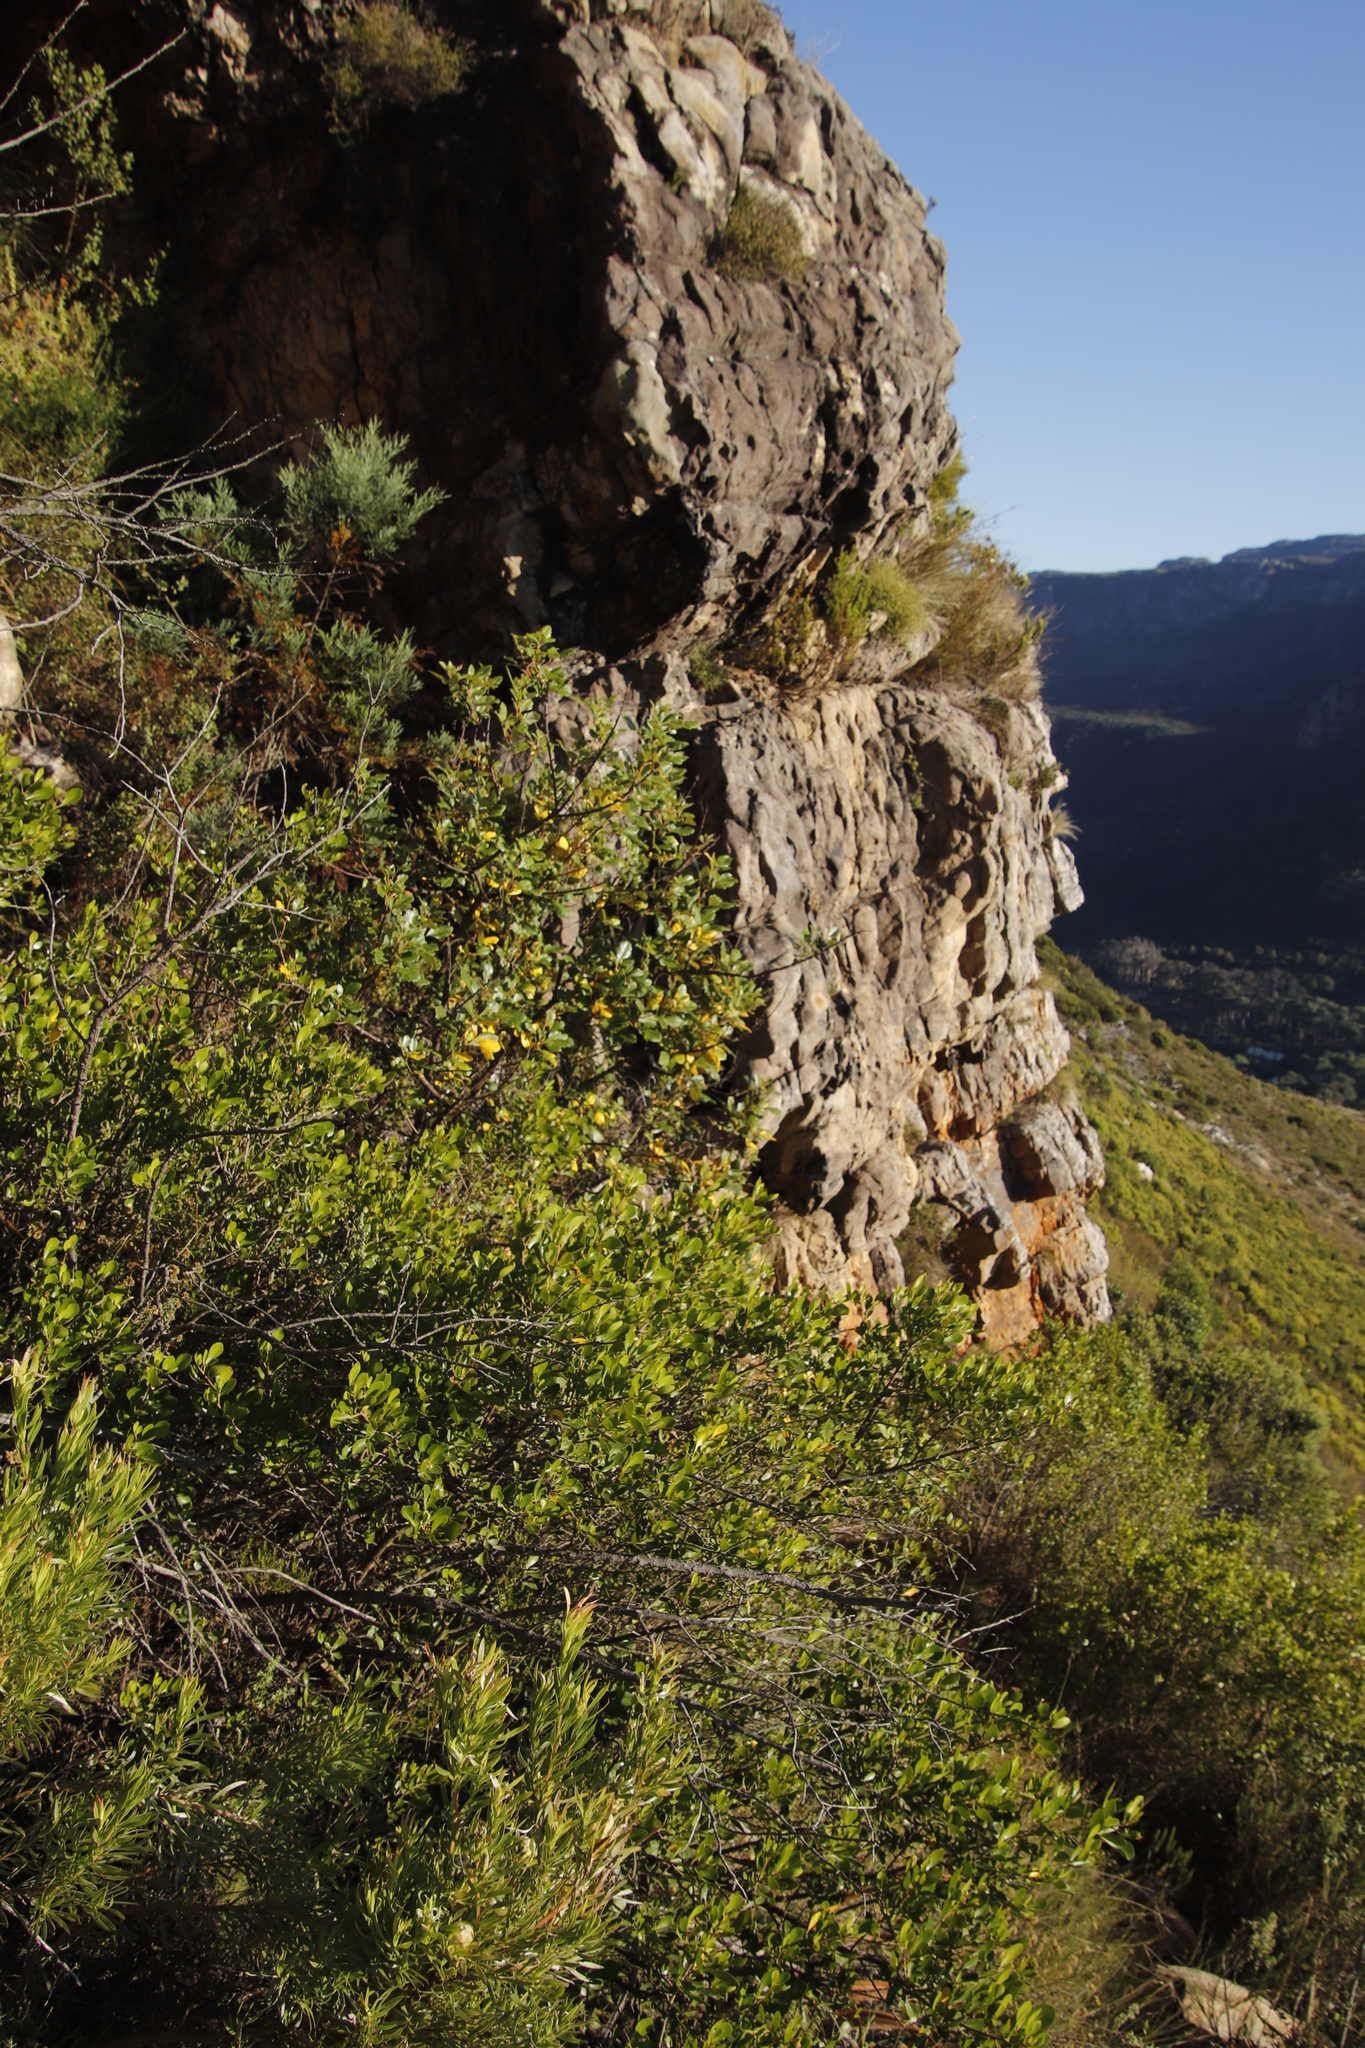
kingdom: Plantae
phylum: Tracheophyta
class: Magnoliopsida
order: Sapindales
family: Anacardiaceae
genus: Searsia
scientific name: Searsia lucida
